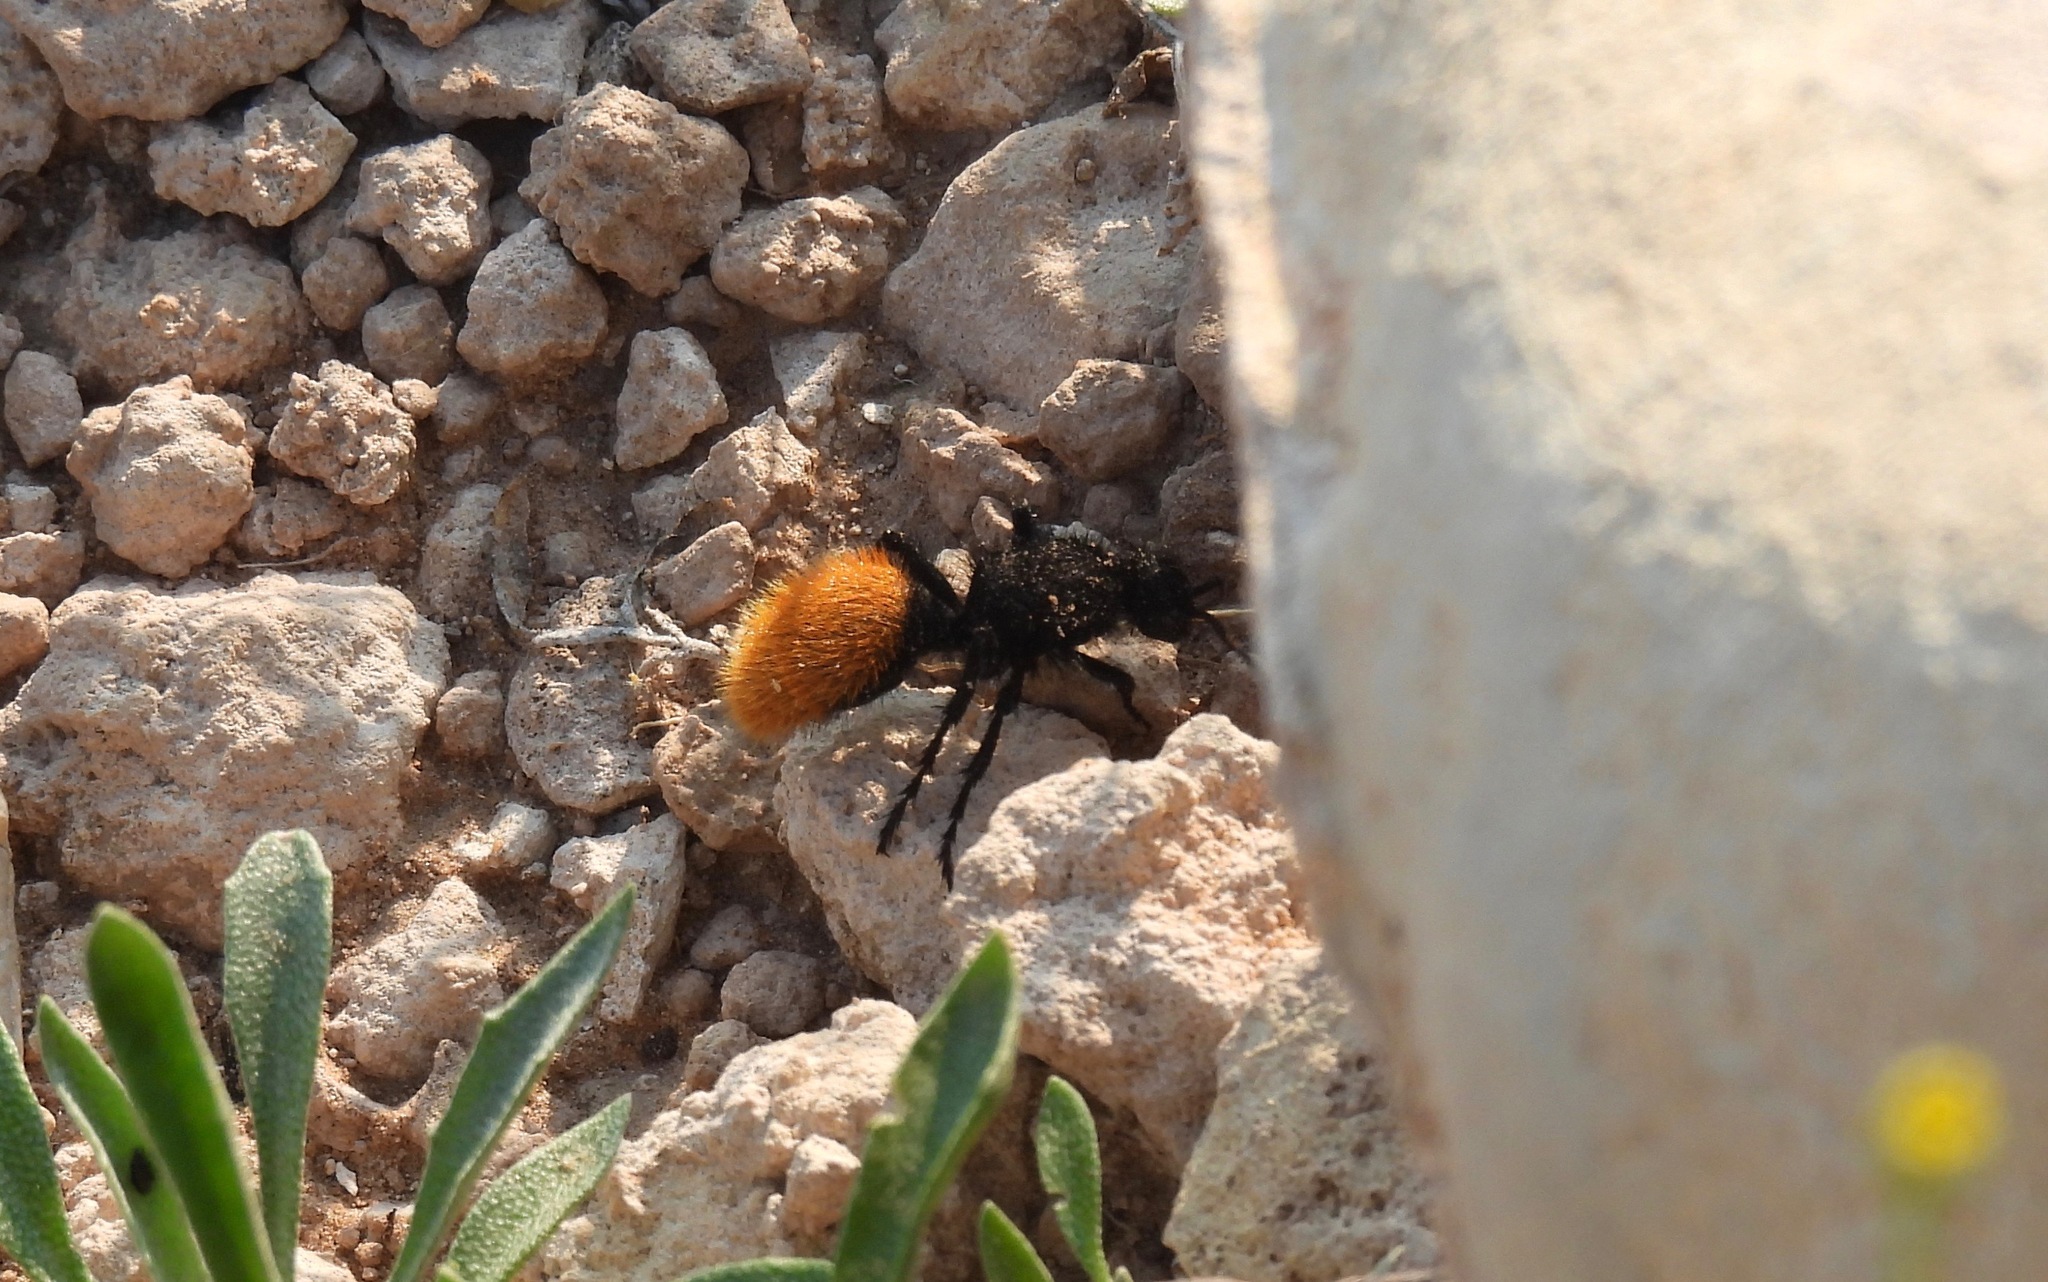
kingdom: Animalia
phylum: Arthropoda
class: Insecta
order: Hymenoptera
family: Mutillidae
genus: Dasymutilla
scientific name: Dasymutilla
